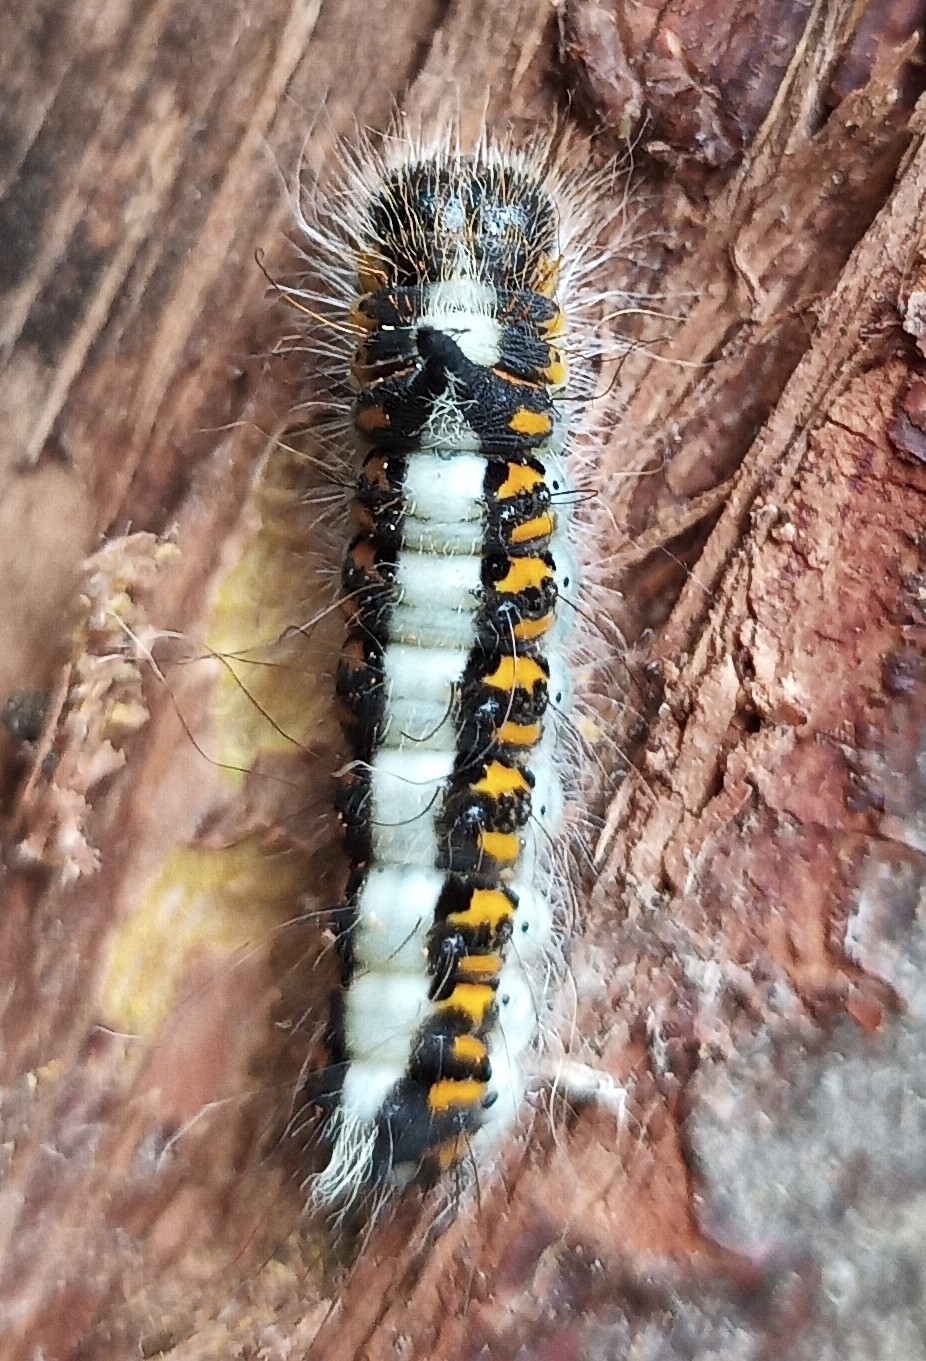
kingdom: Animalia
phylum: Arthropoda
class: Insecta
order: Lepidoptera
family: Noctuidae
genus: Acronicta
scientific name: Acronicta psi
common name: Grey dagger
